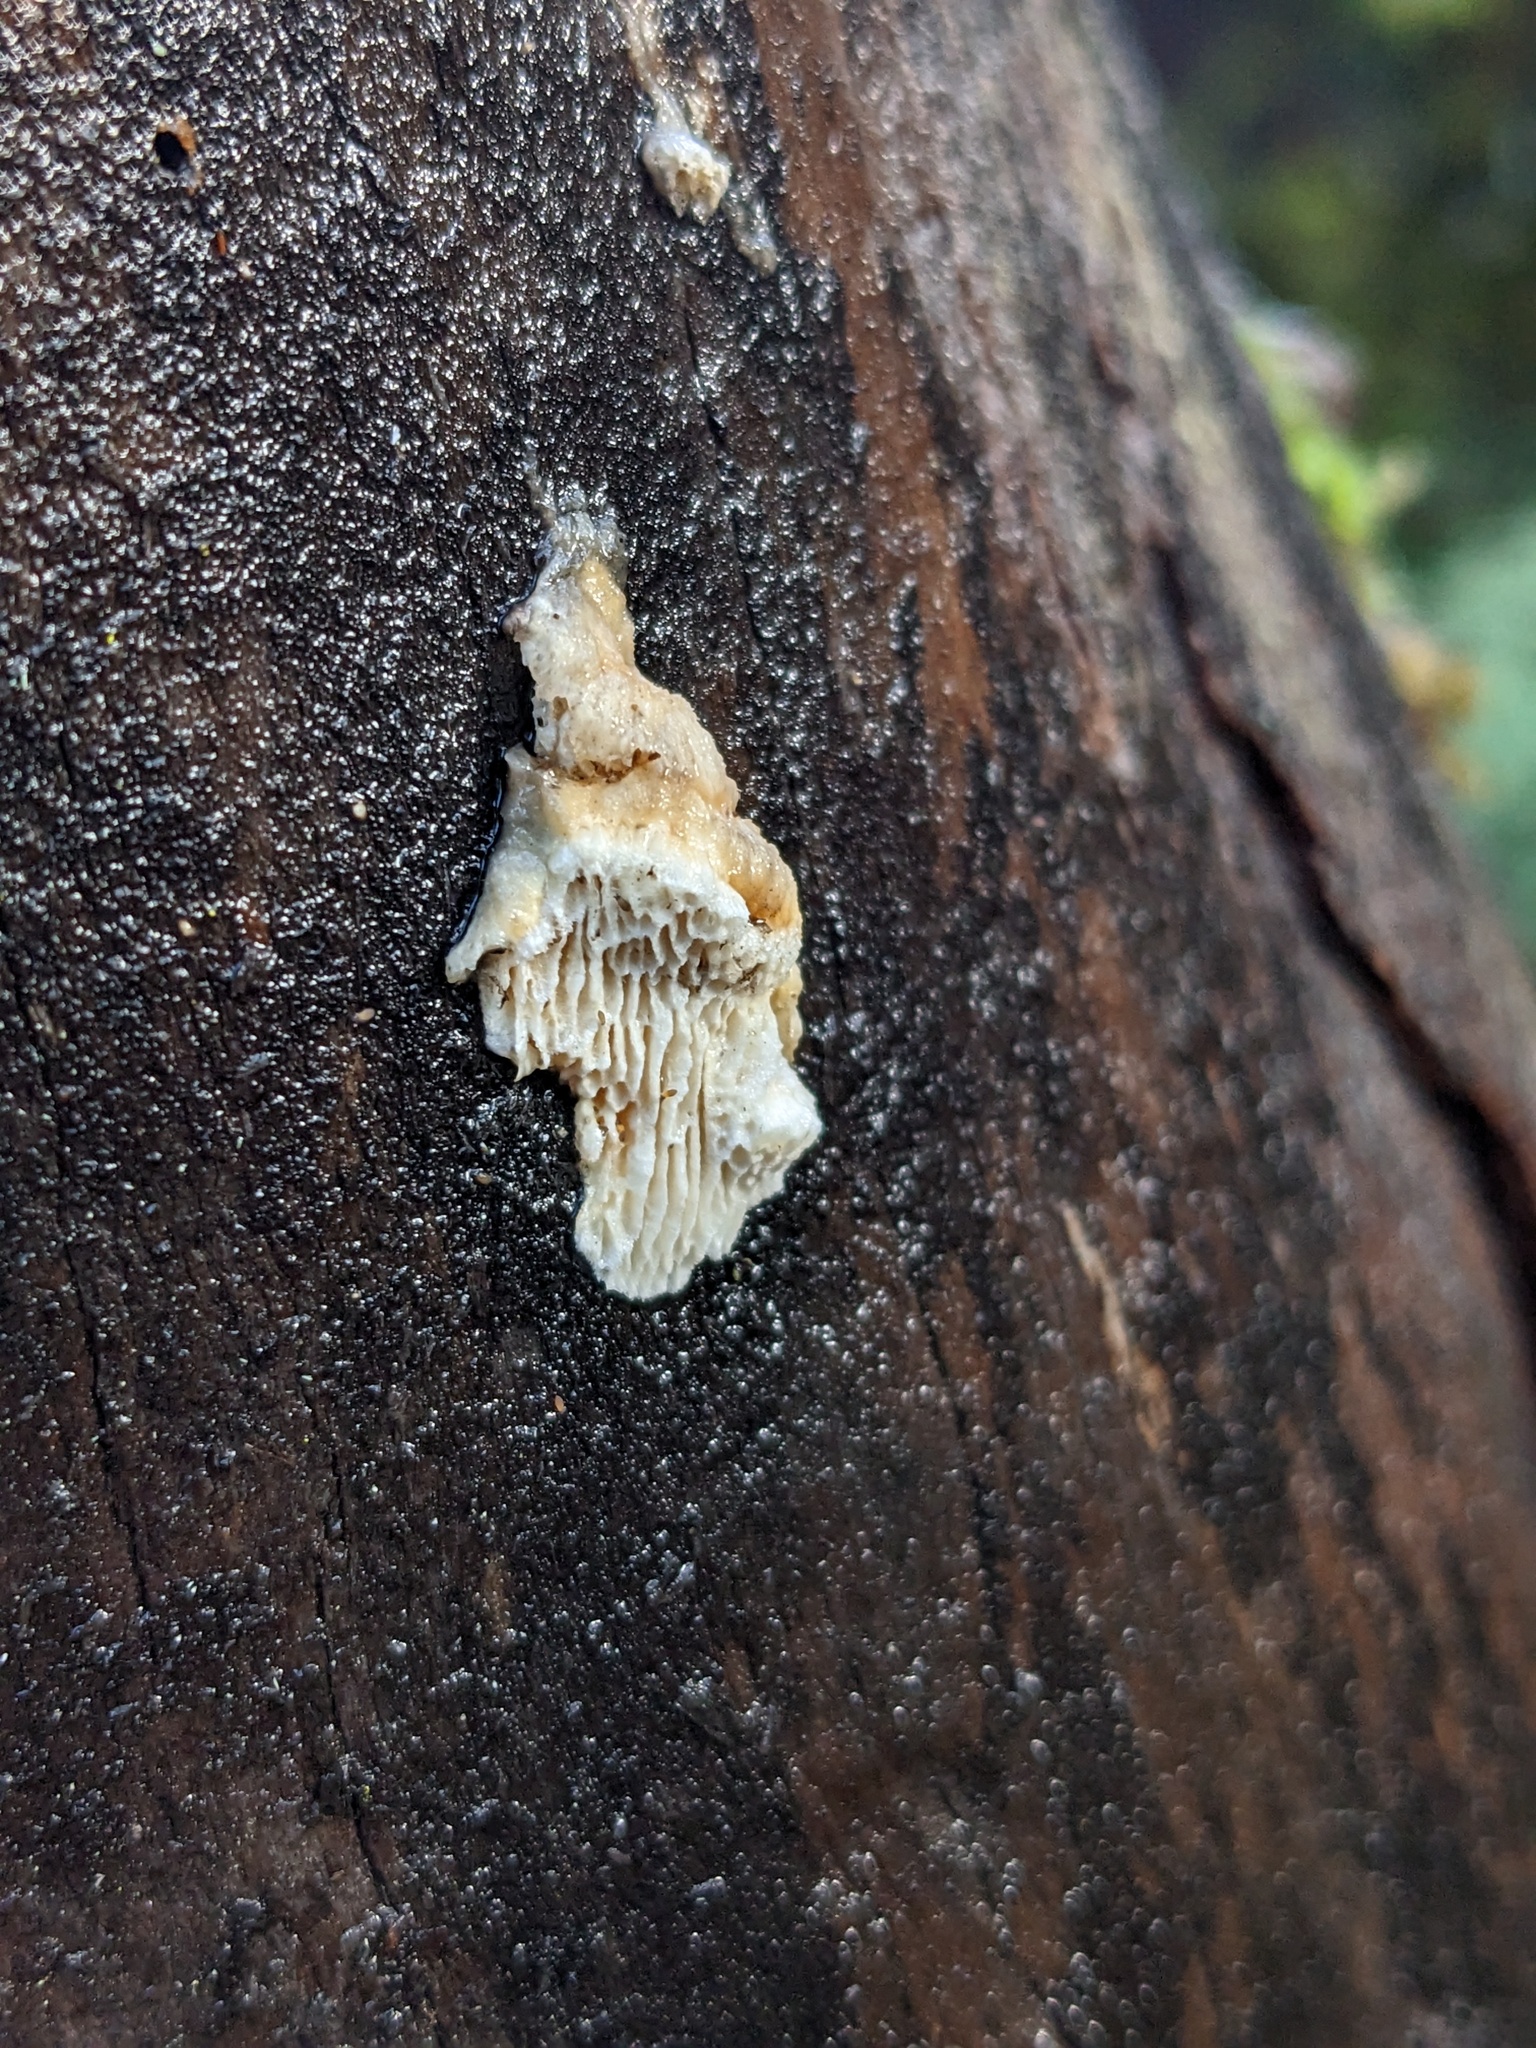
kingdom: Fungi
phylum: Basidiomycota
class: Agaricomycetes
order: Polyporales
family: Fomitopsidaceae
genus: Fomitopsis
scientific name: Fomitopsis
